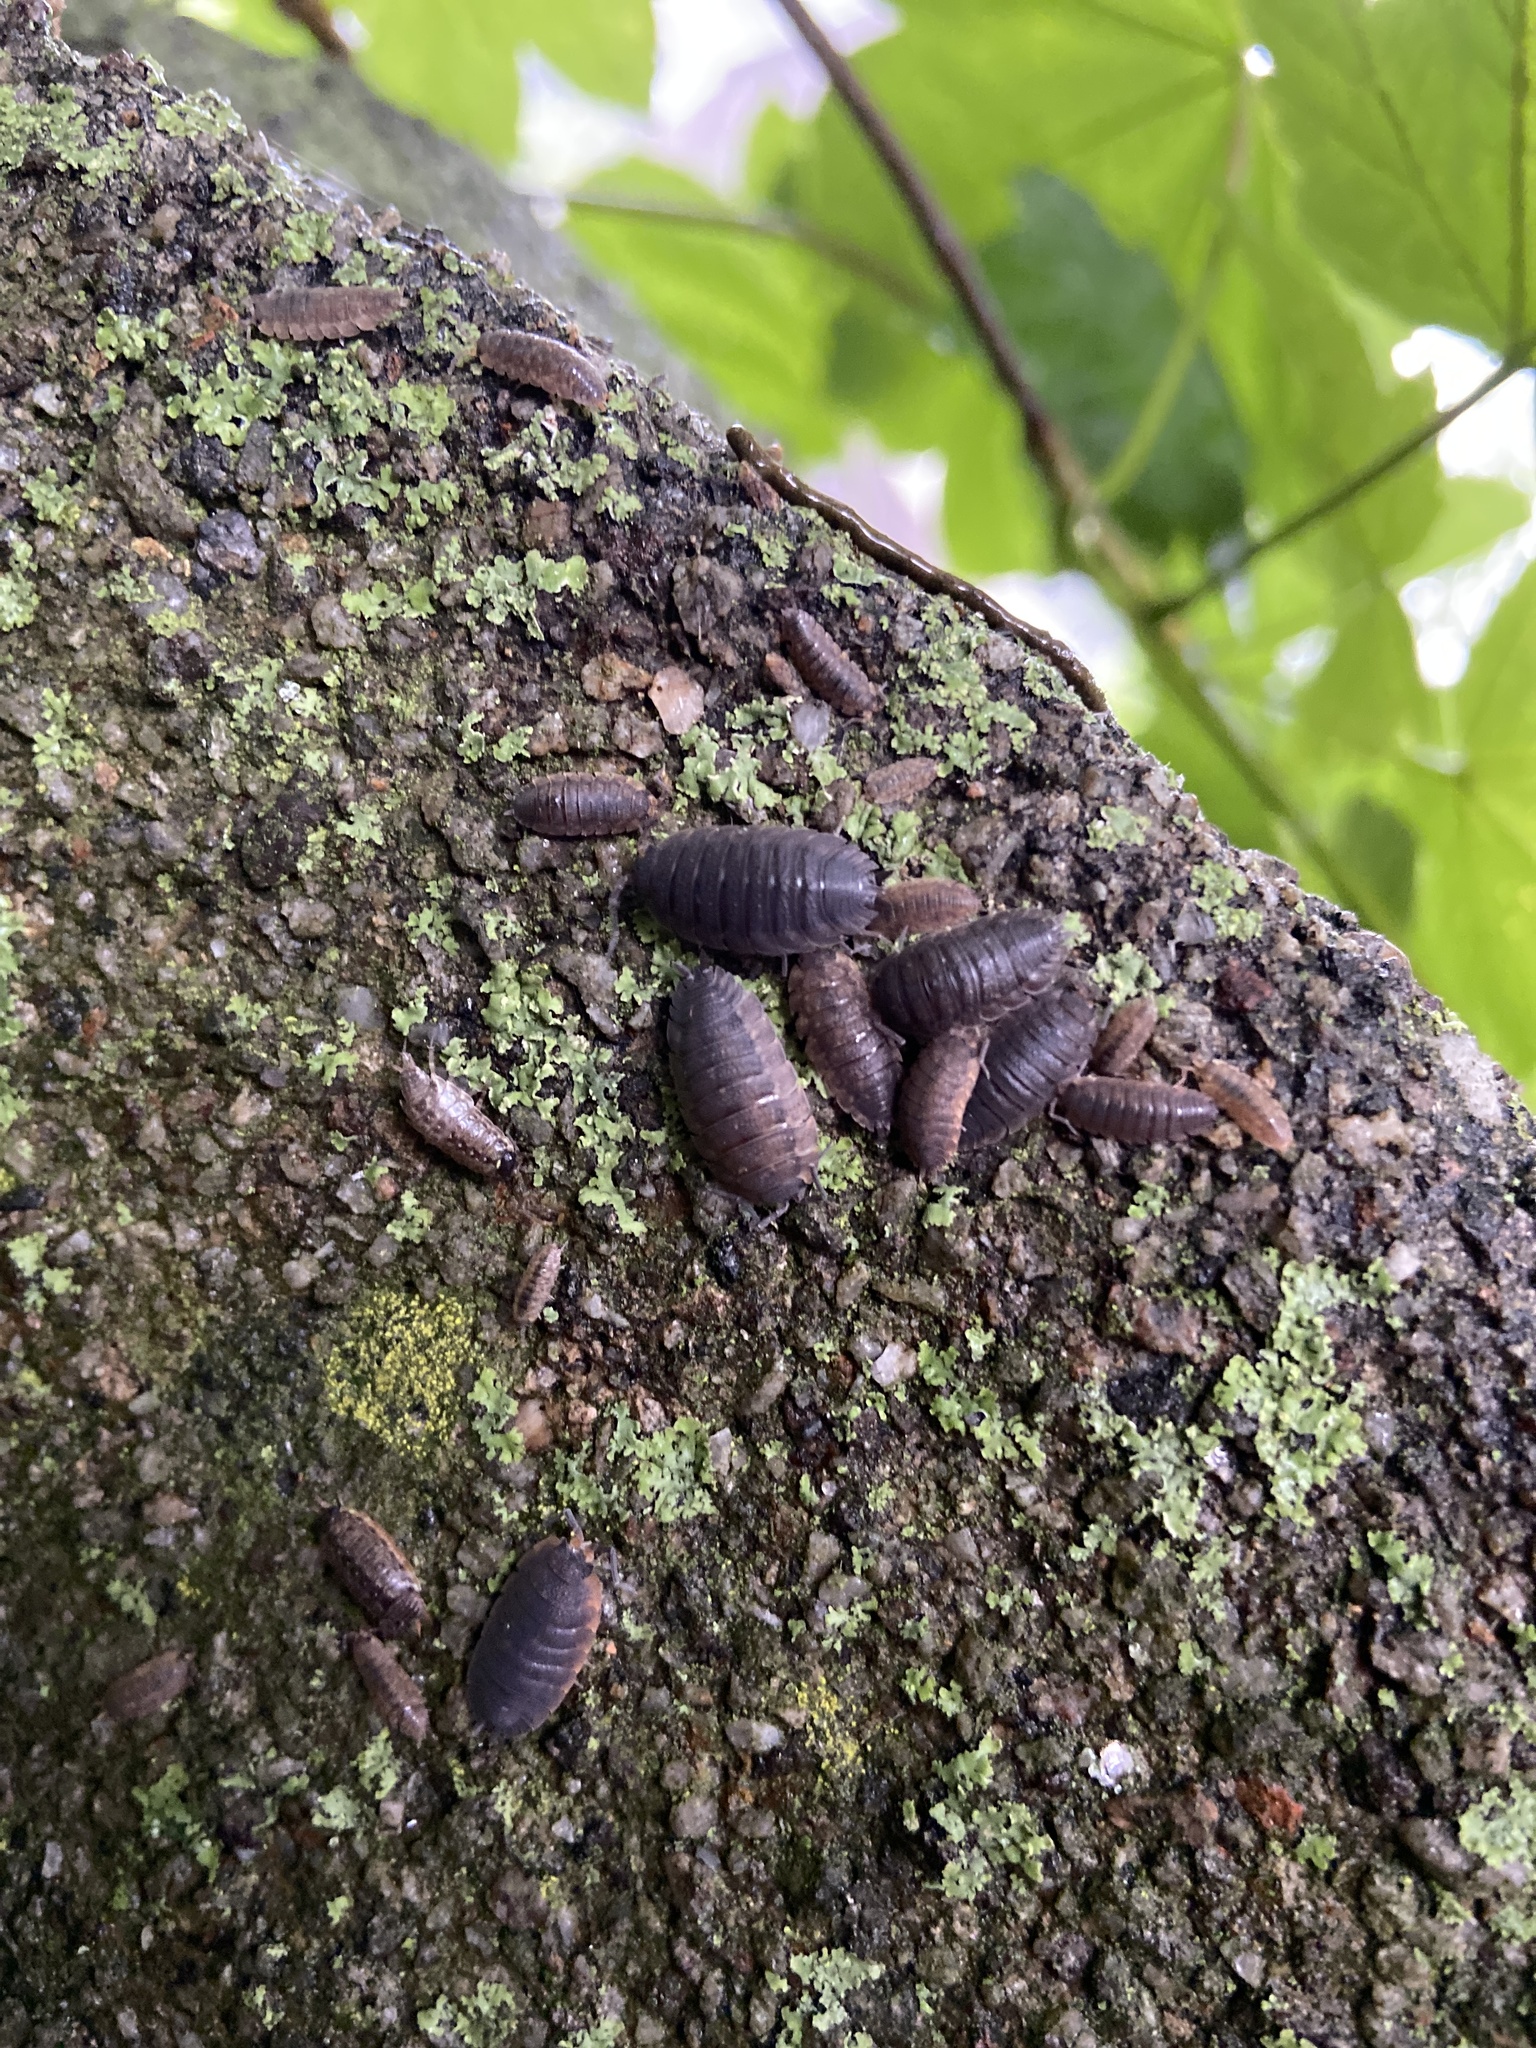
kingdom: Animalia
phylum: Arthropoda
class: Malacostraca
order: Isopoda
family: Porcellionidae
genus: Porcellio
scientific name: Porcellio scaber
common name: Common rough woodlouse
